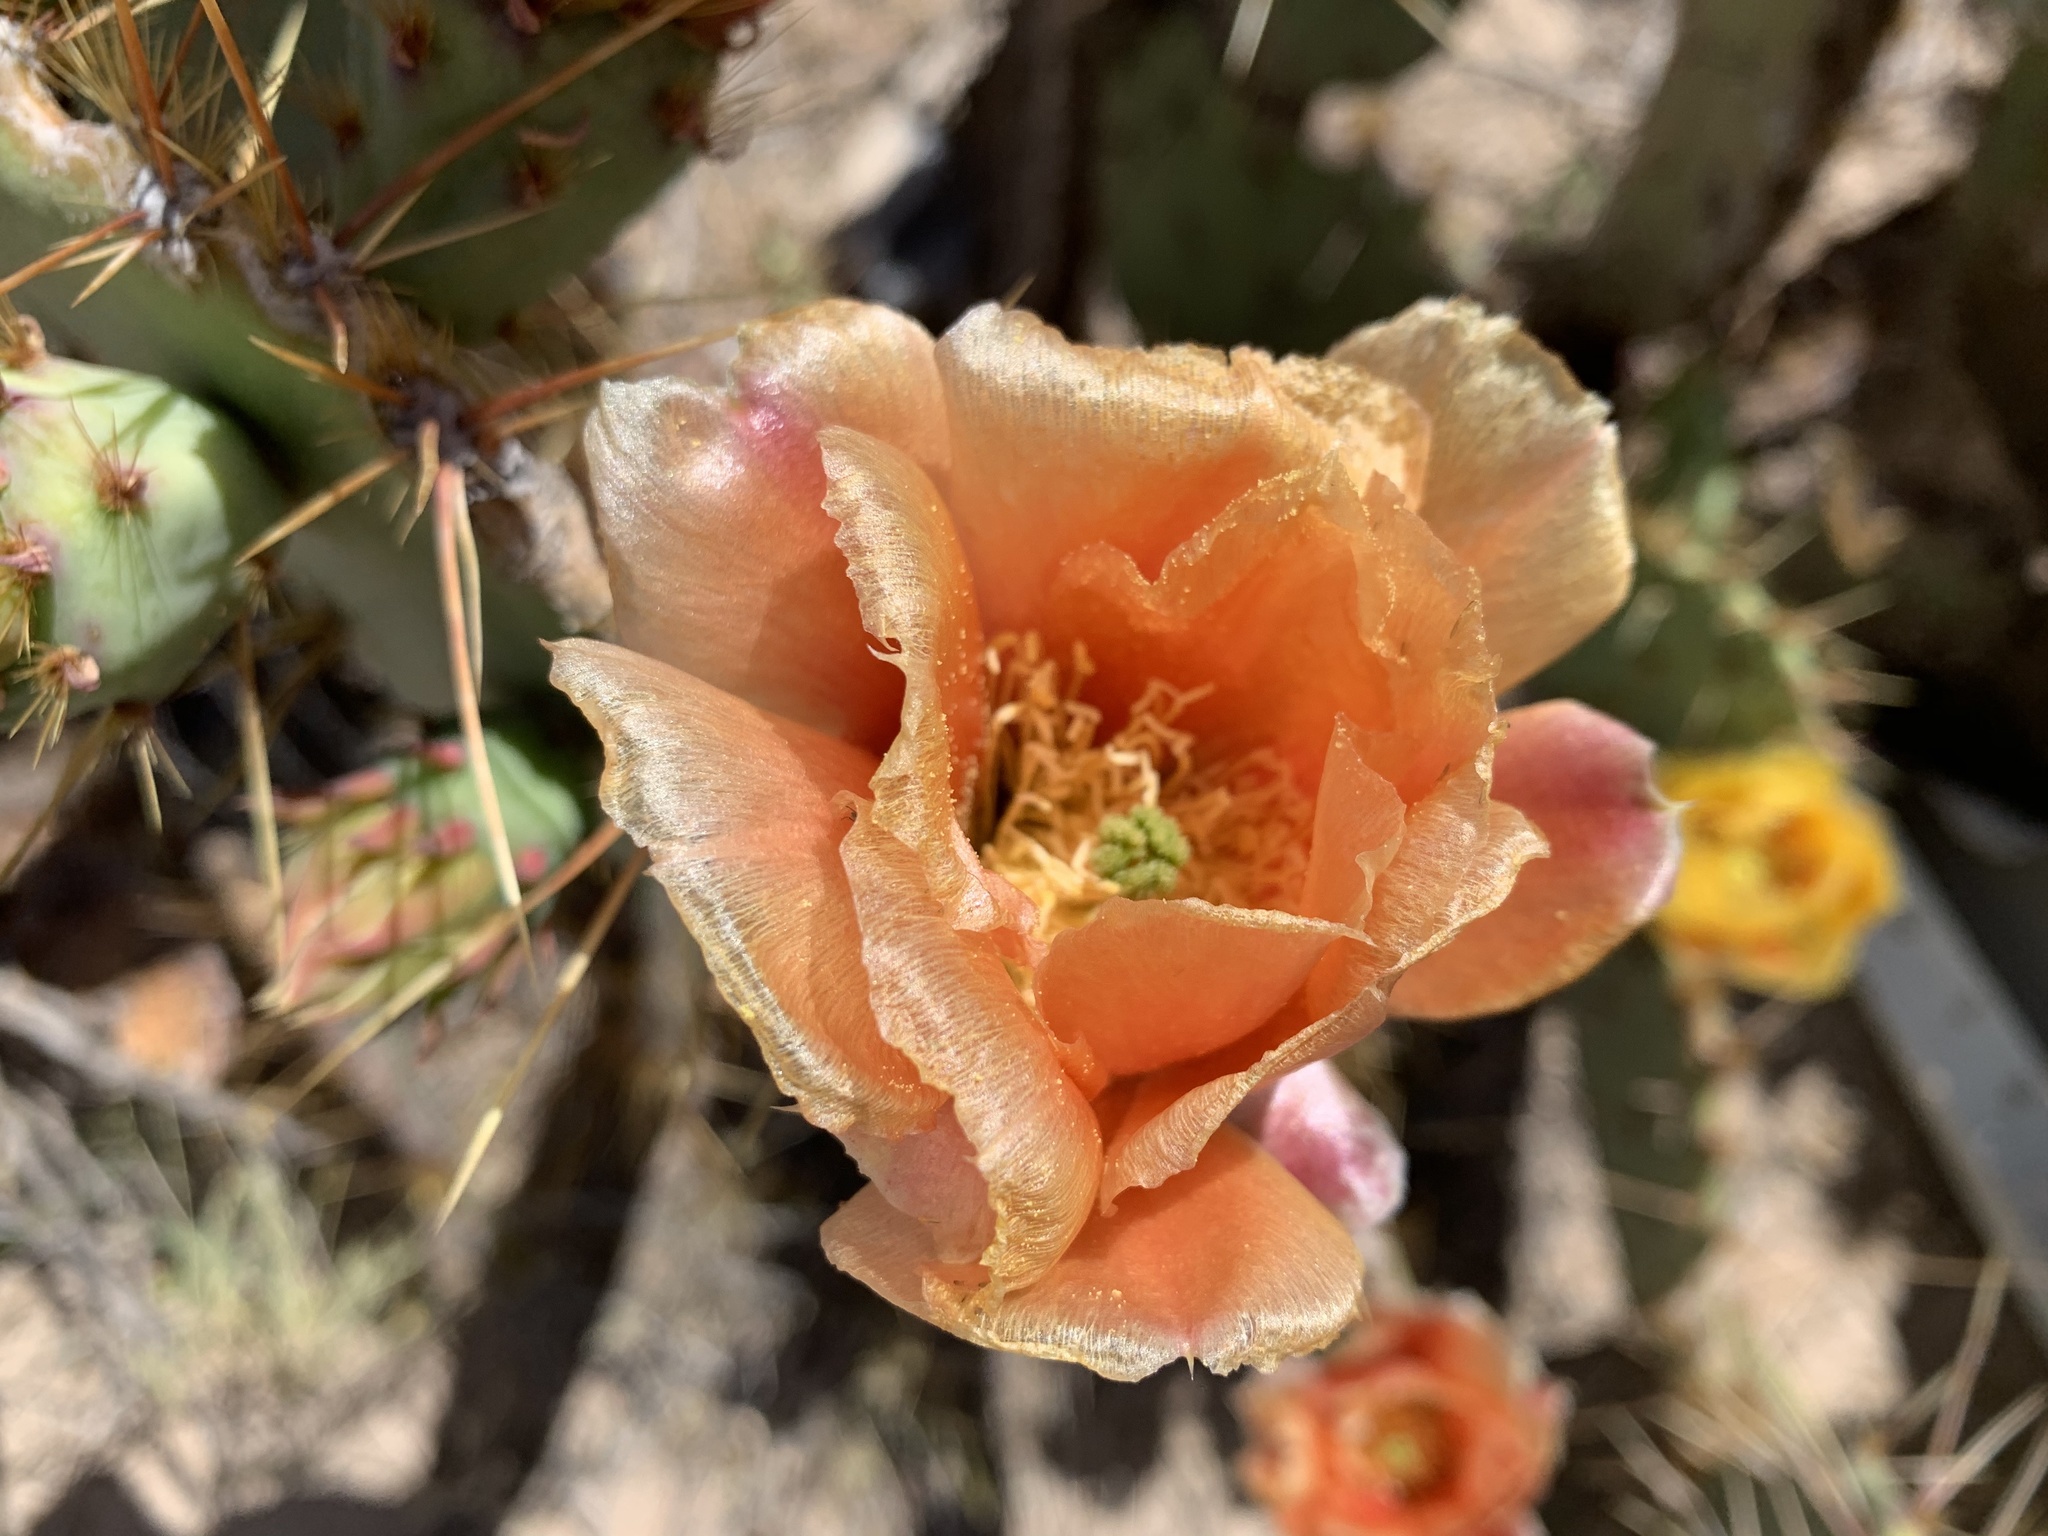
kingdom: Plantae
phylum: Tracheophyta
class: Magnoliopsida
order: Caryophyllales
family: Cactaceae
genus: Opuntia
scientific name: Opuntia phaeacantha
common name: New mexico prickly-pear
